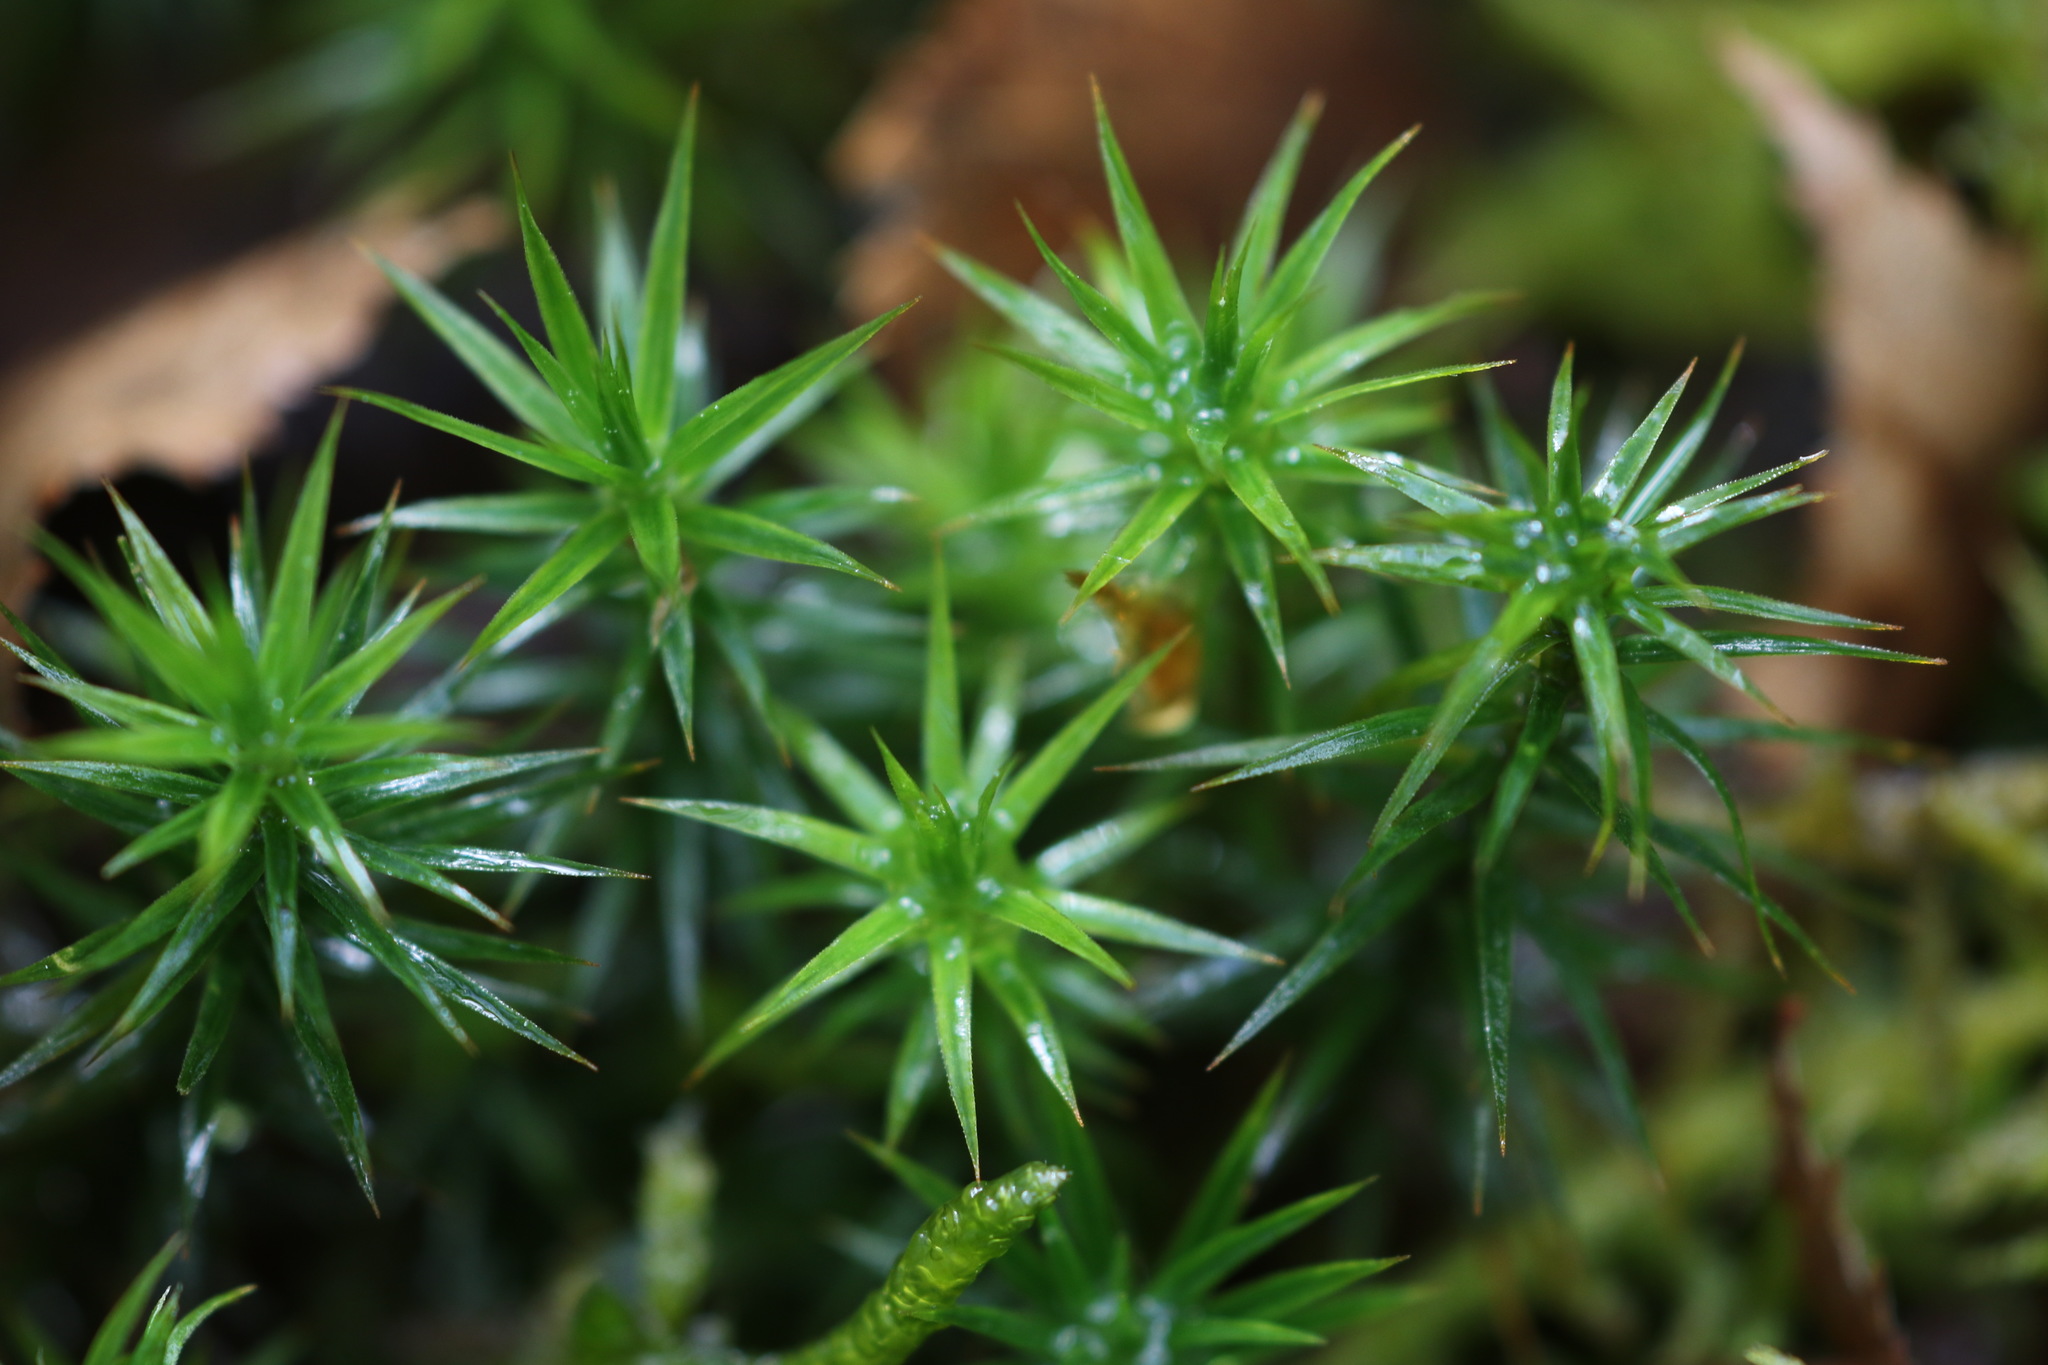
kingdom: Plantae
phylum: Bryophyta
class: Polytrichopsida
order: Polytrichales
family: Polytrichaceae
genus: Polytrichum
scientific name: Polytrichum formosum
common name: Bank haircap moss
